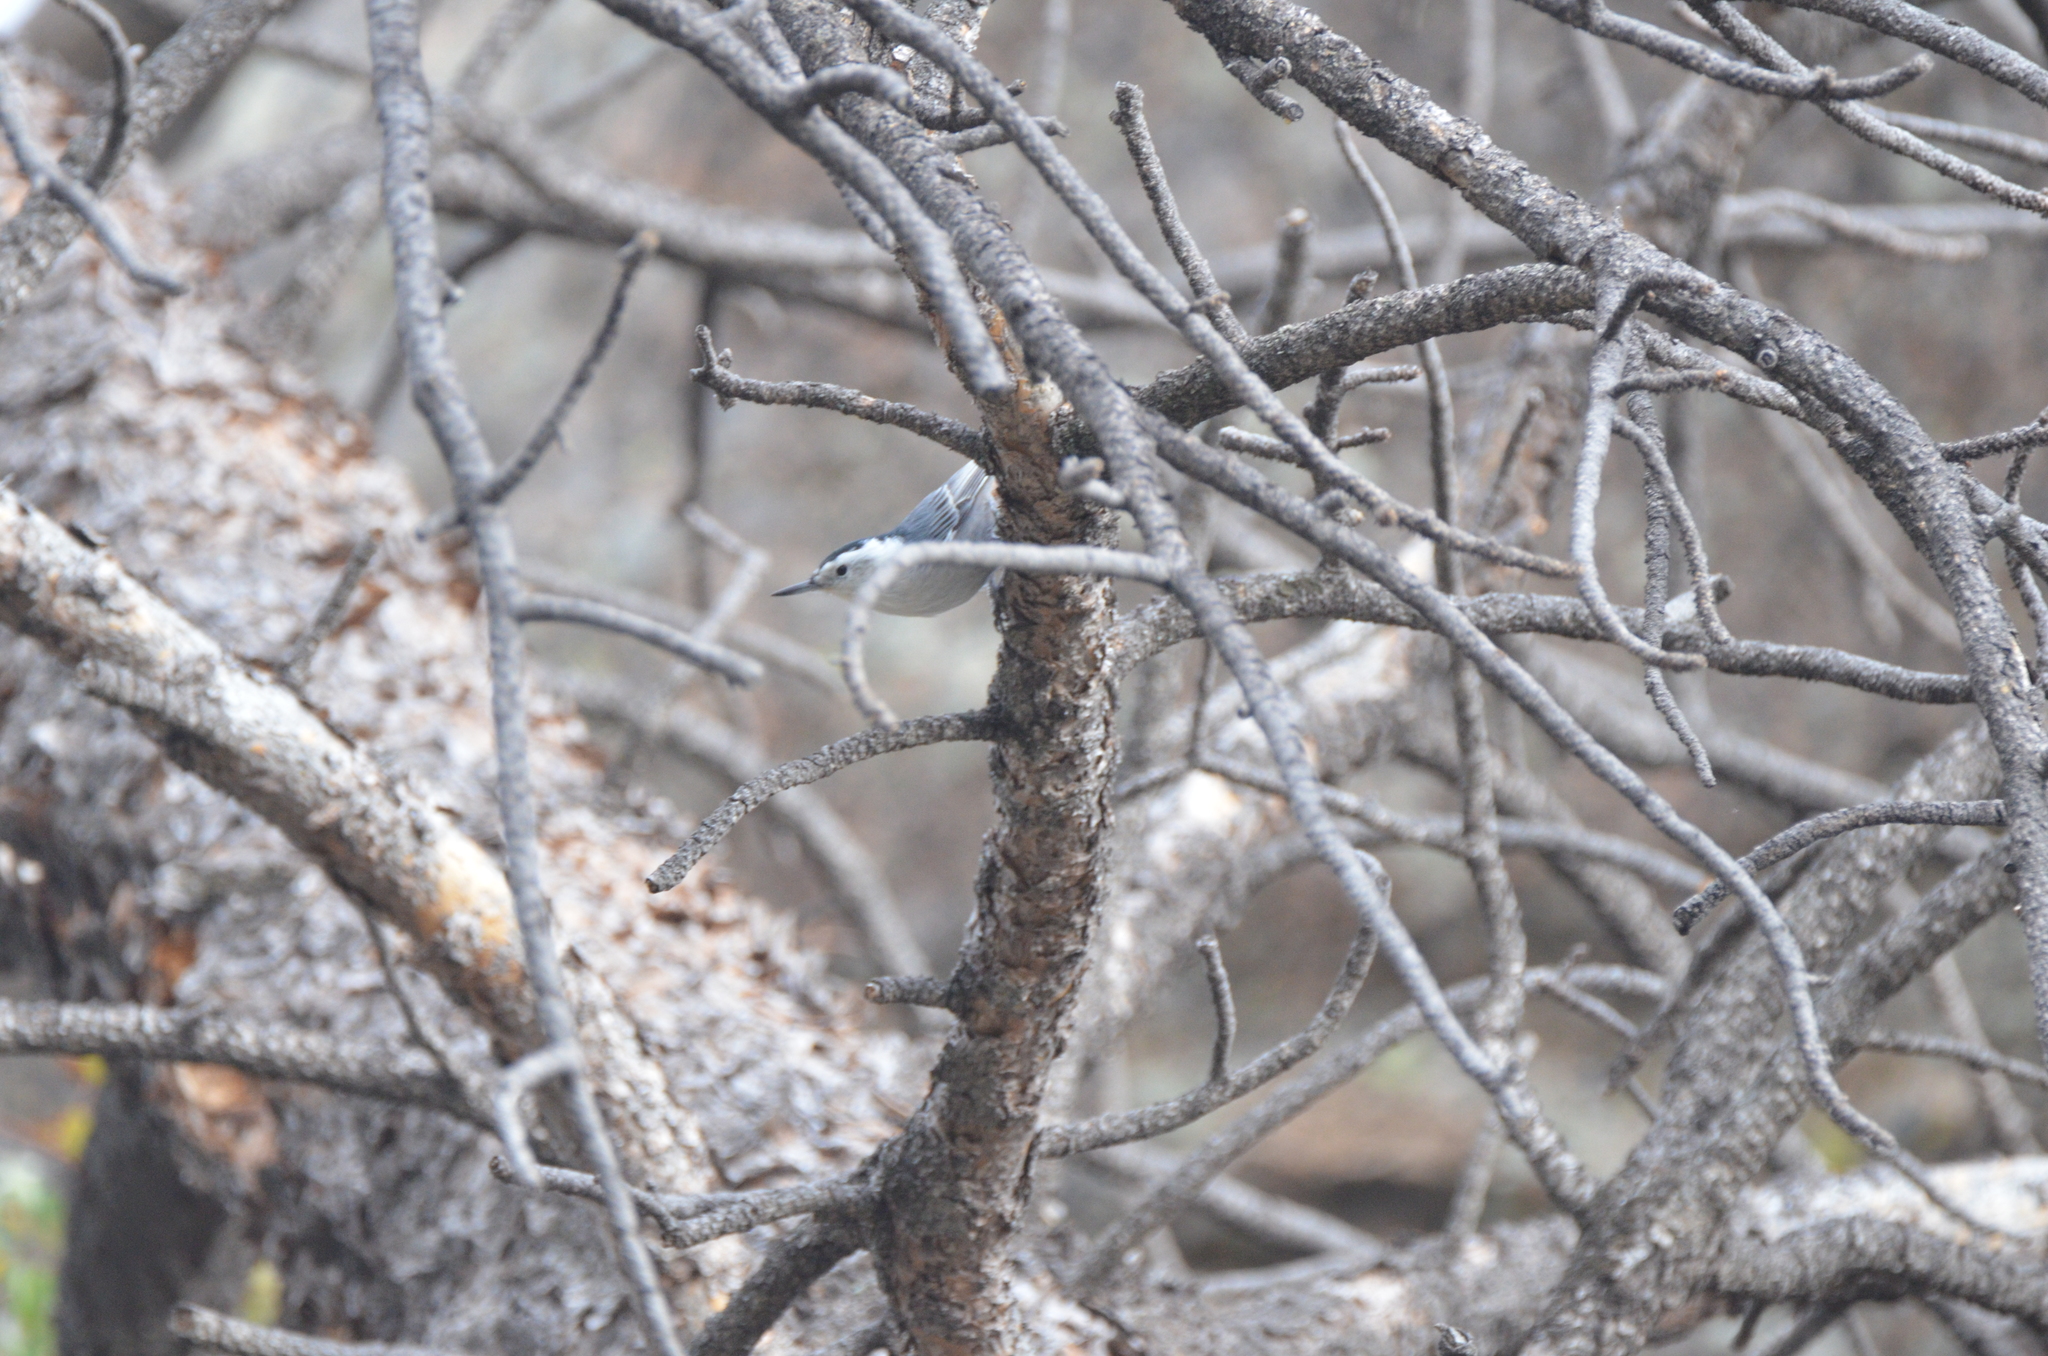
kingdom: Animalia
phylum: Chordata
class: Aves
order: Passeriformes
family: Sittidae
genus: Sitta
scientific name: Sitta carolinensis
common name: White-breasted nuthatch
